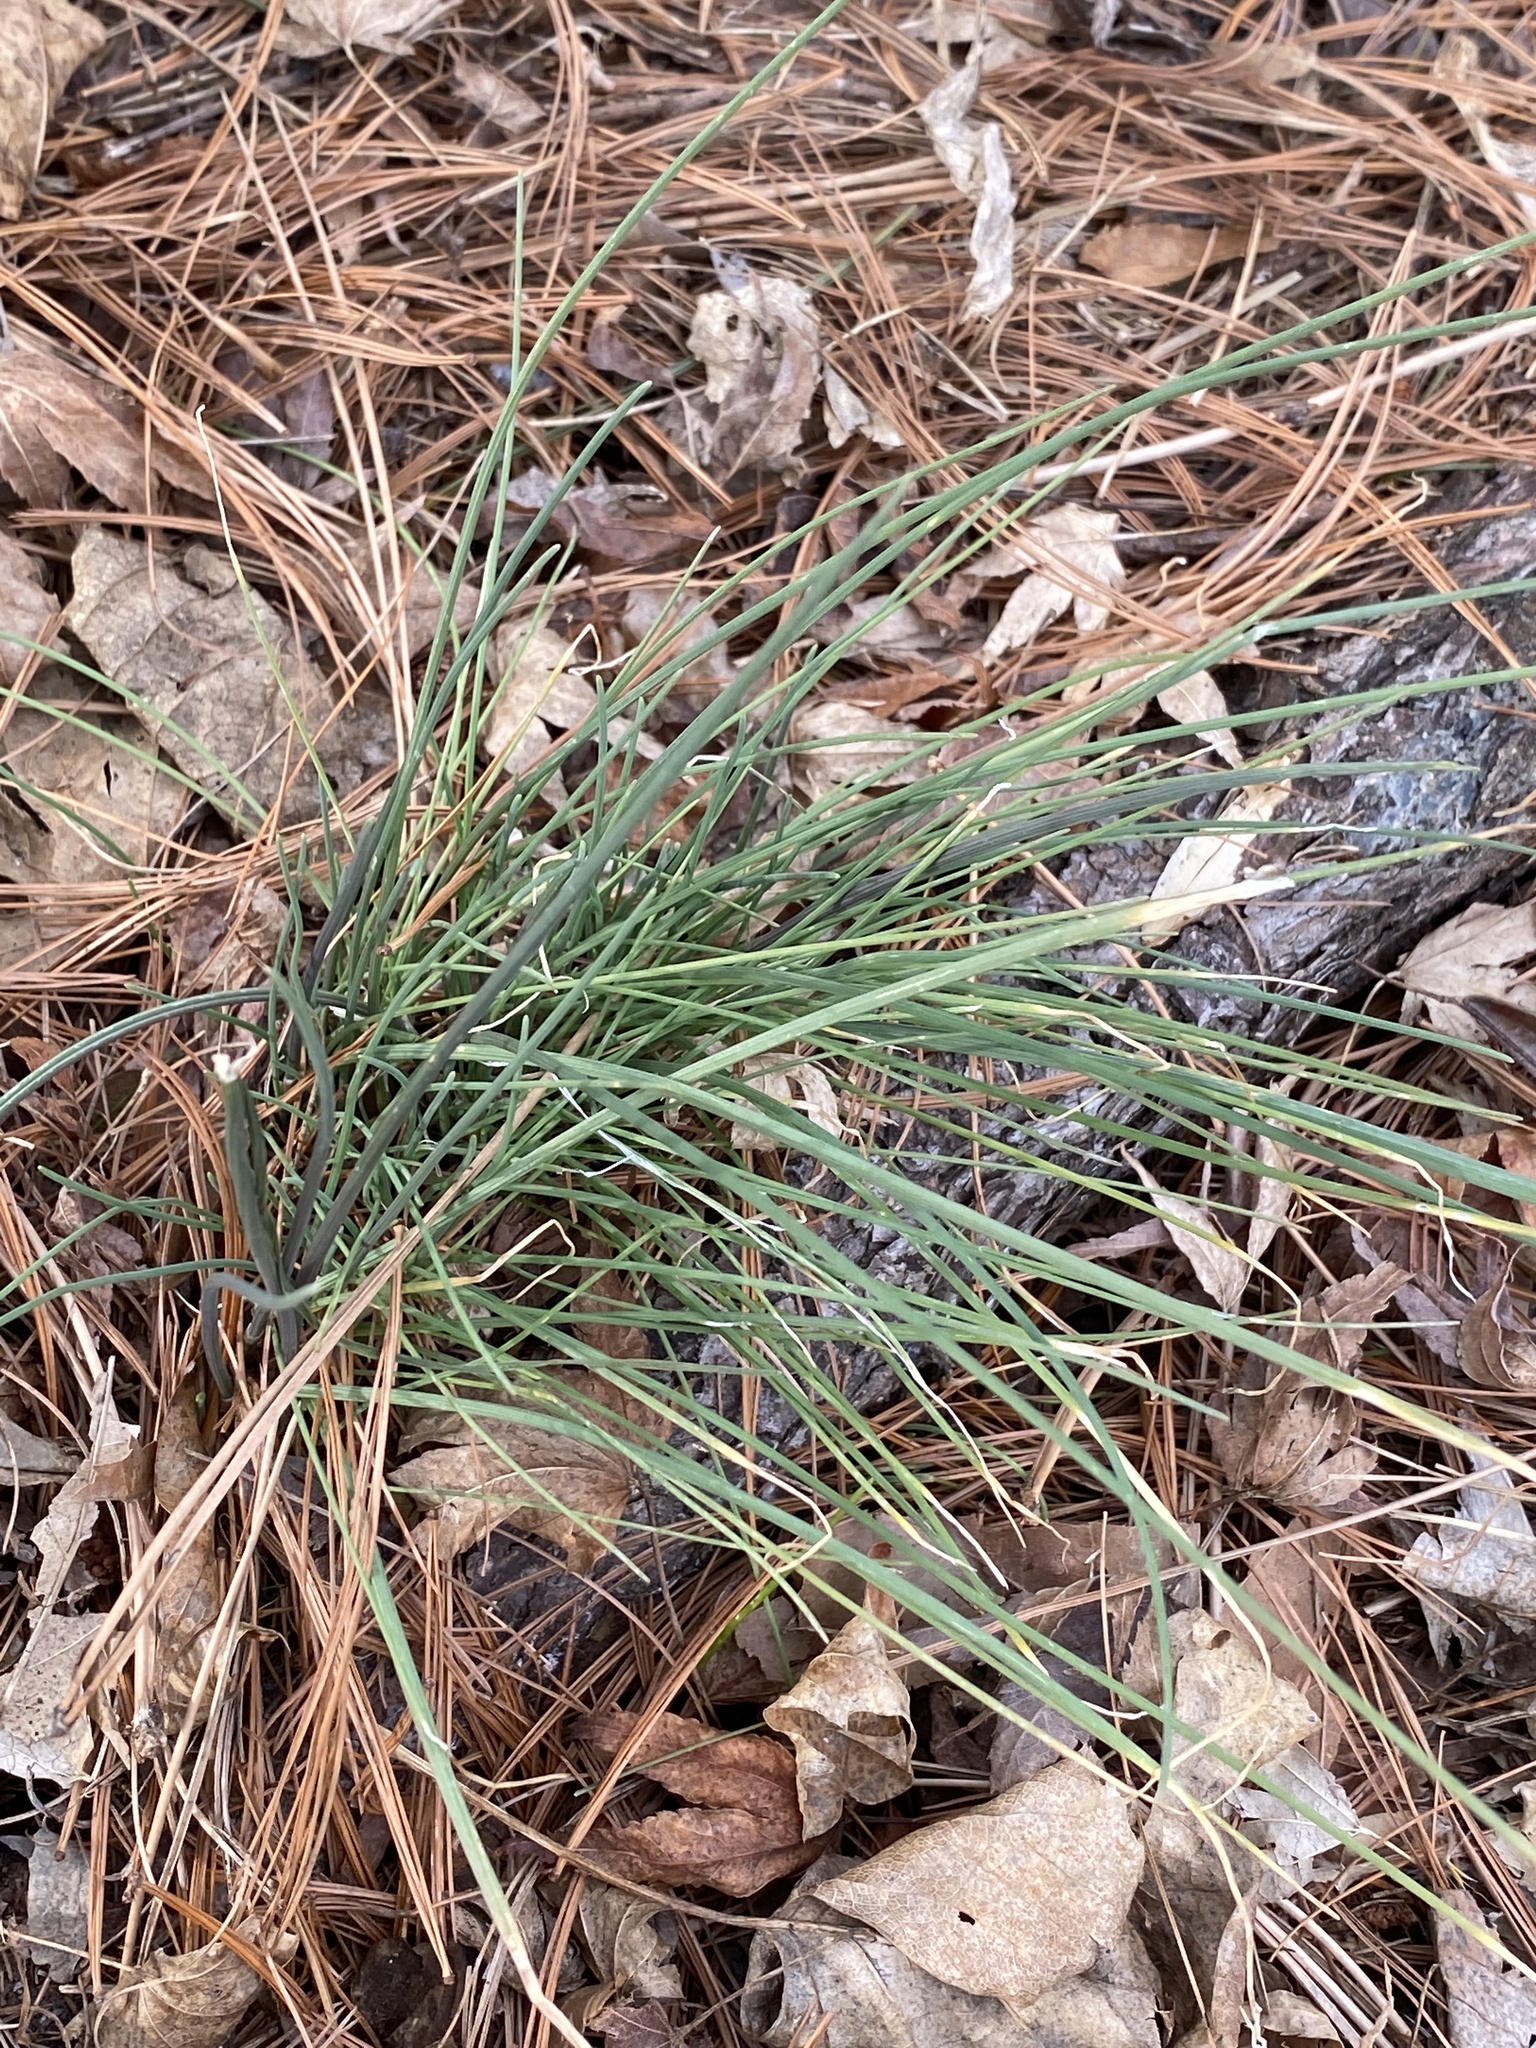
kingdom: Plantae
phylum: Tracheophyta
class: Liliopsida
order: Asparagales
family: Amaryllidaceae
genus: Allium
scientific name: Allium vineale
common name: Crow garlic
